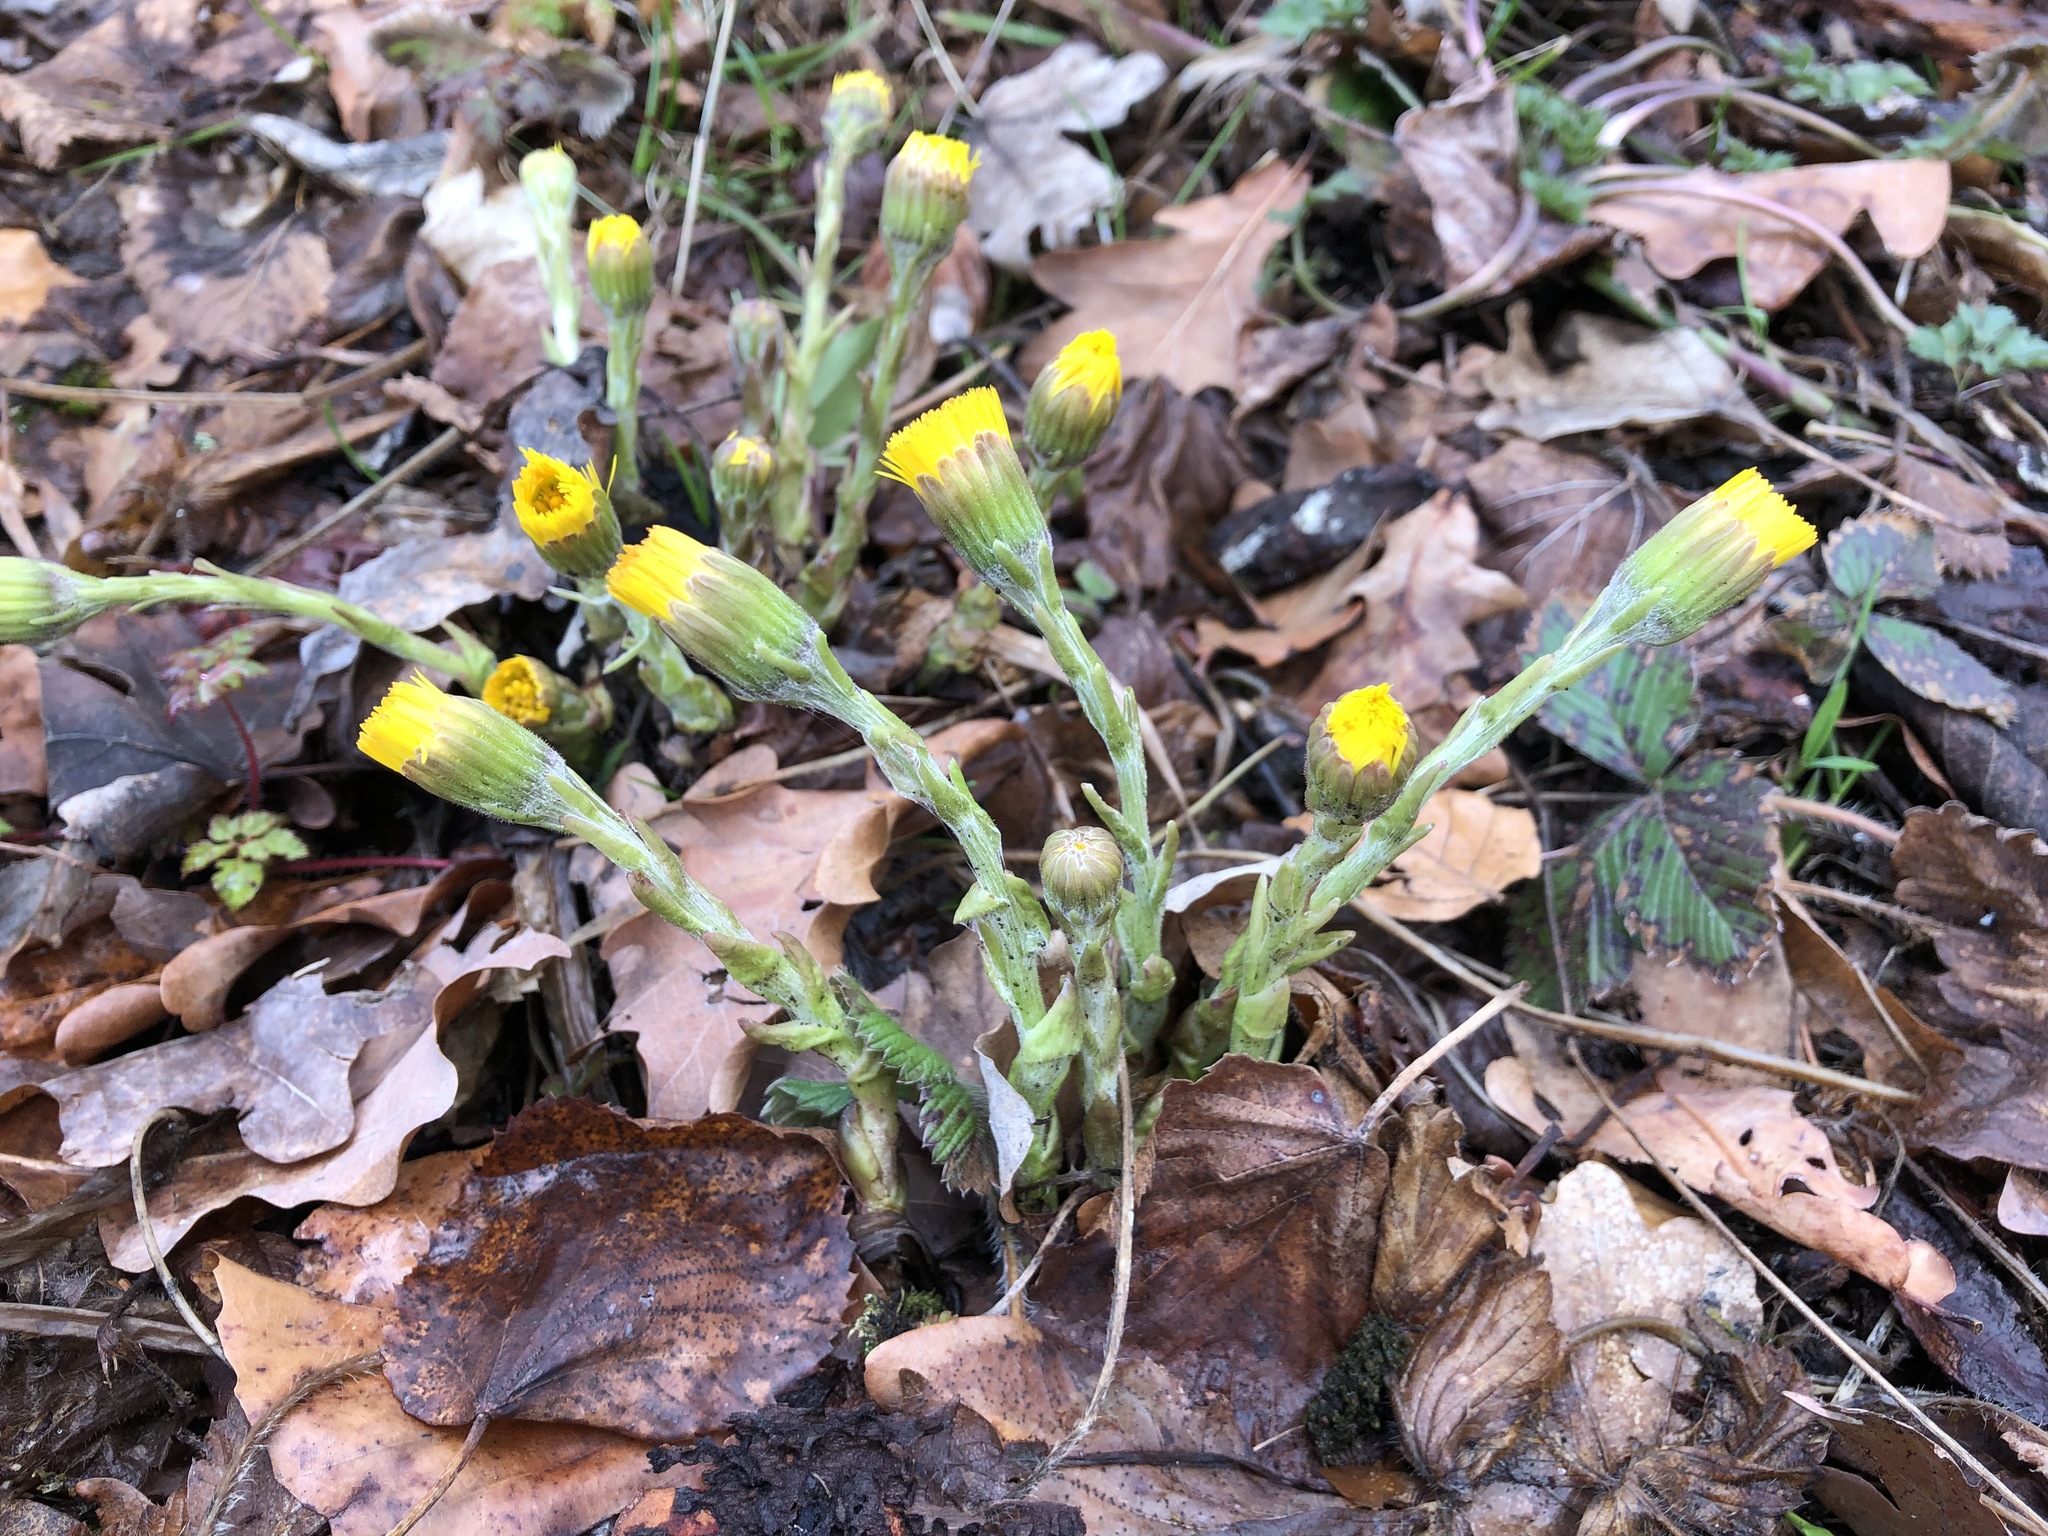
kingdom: Plantae
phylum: Tracheophyta
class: Magnoliopsida
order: Asterales
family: Asteraceae
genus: Tussilago
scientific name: Tussilago farfara
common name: Coltsfoot
